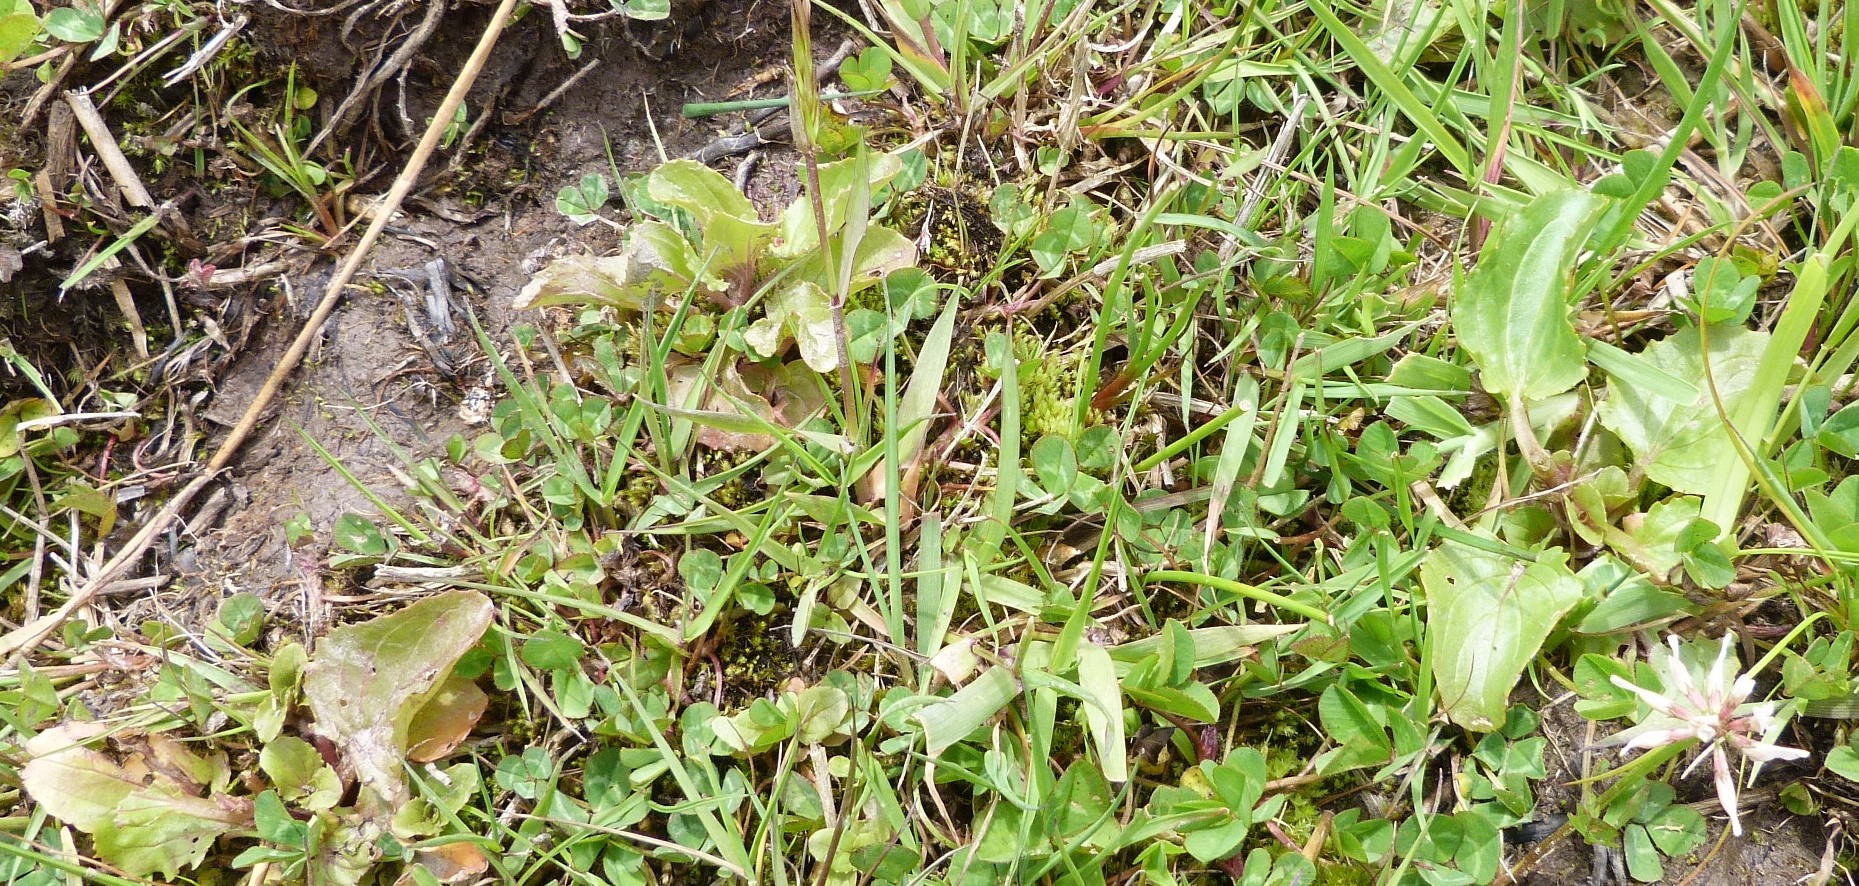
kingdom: Plantae
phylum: Tracheophyta
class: Magnoliopsida
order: Lamiales
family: Phrymaceae
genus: Erythranthe
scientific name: Erythranthe guttata
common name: Monkeyflower
